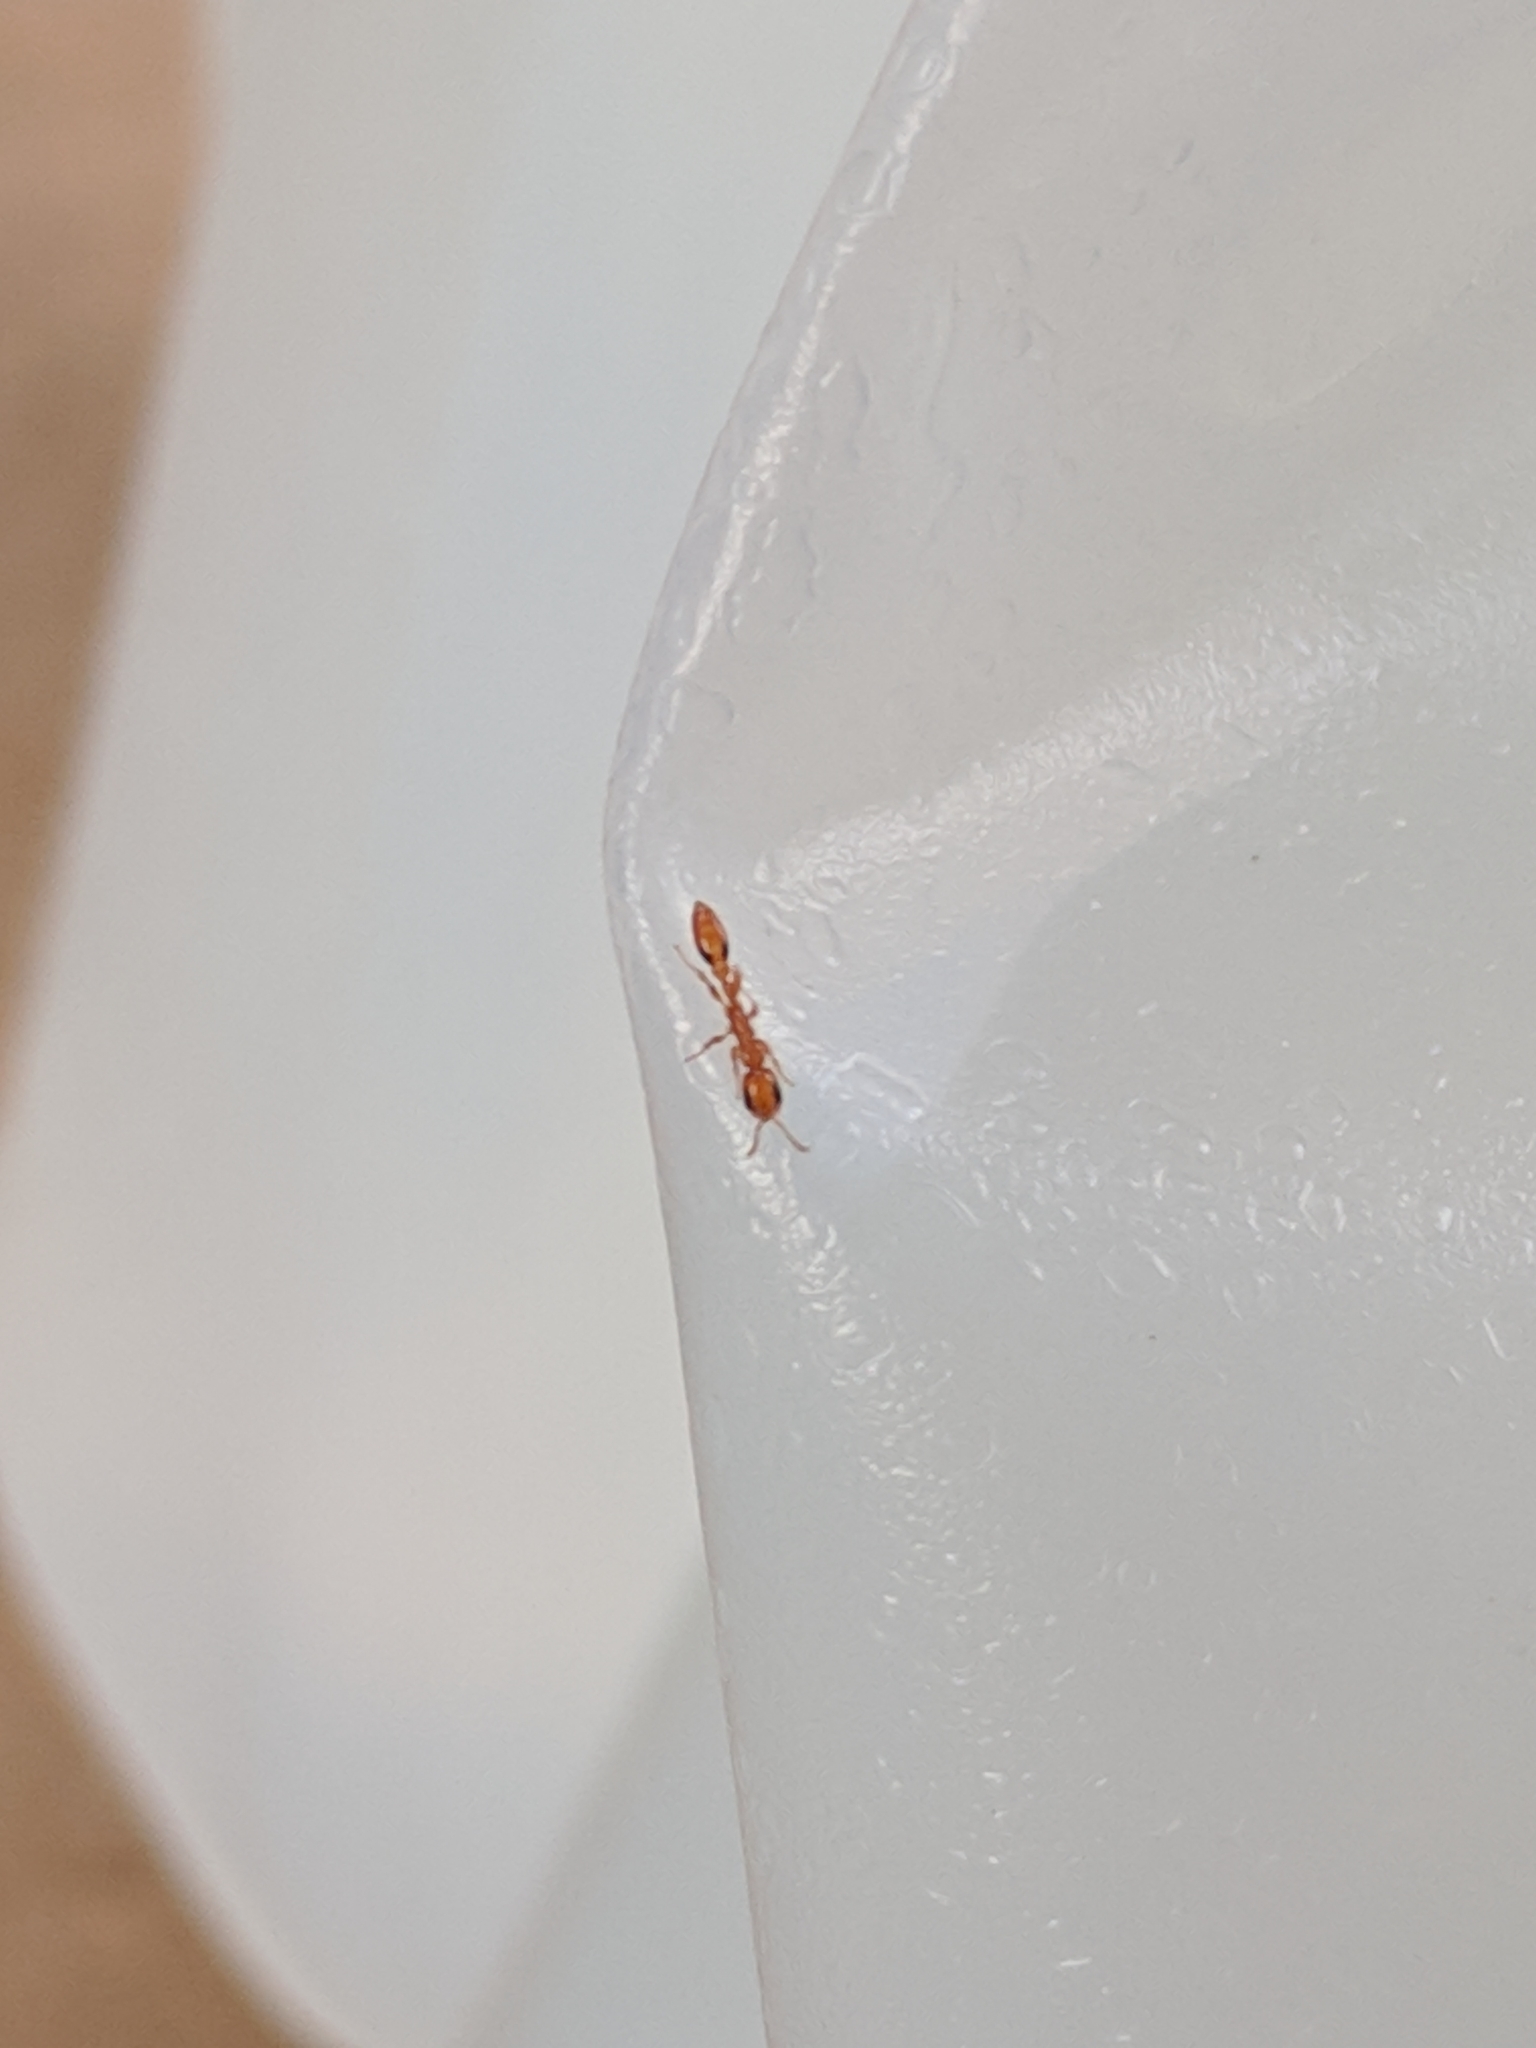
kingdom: Animalia
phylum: Arthropoda
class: Insecta
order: Hymenoptera
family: Formicidae
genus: Pseudomyrmex
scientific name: Pseudomyrmex simplex
